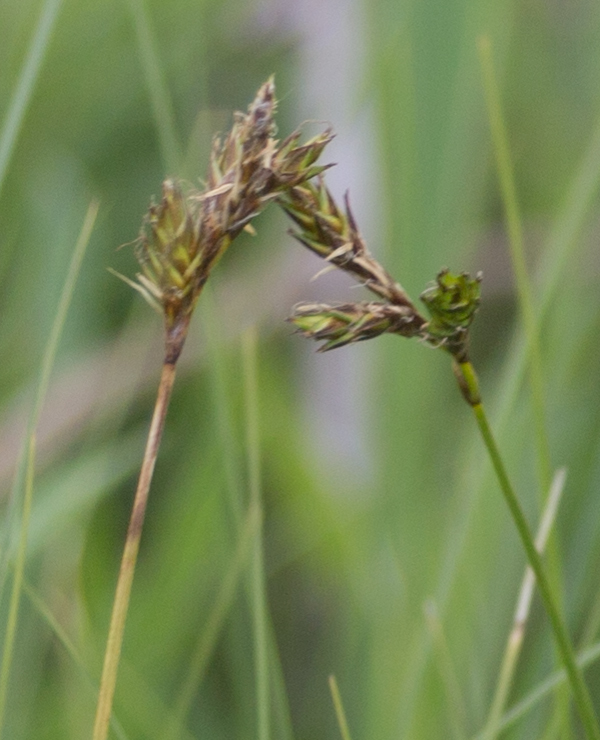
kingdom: Plantae
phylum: Tracheophyta
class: Liliopsida
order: Poales
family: Cyperaceae
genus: Carex
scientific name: Carex praecox
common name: Early sedge
